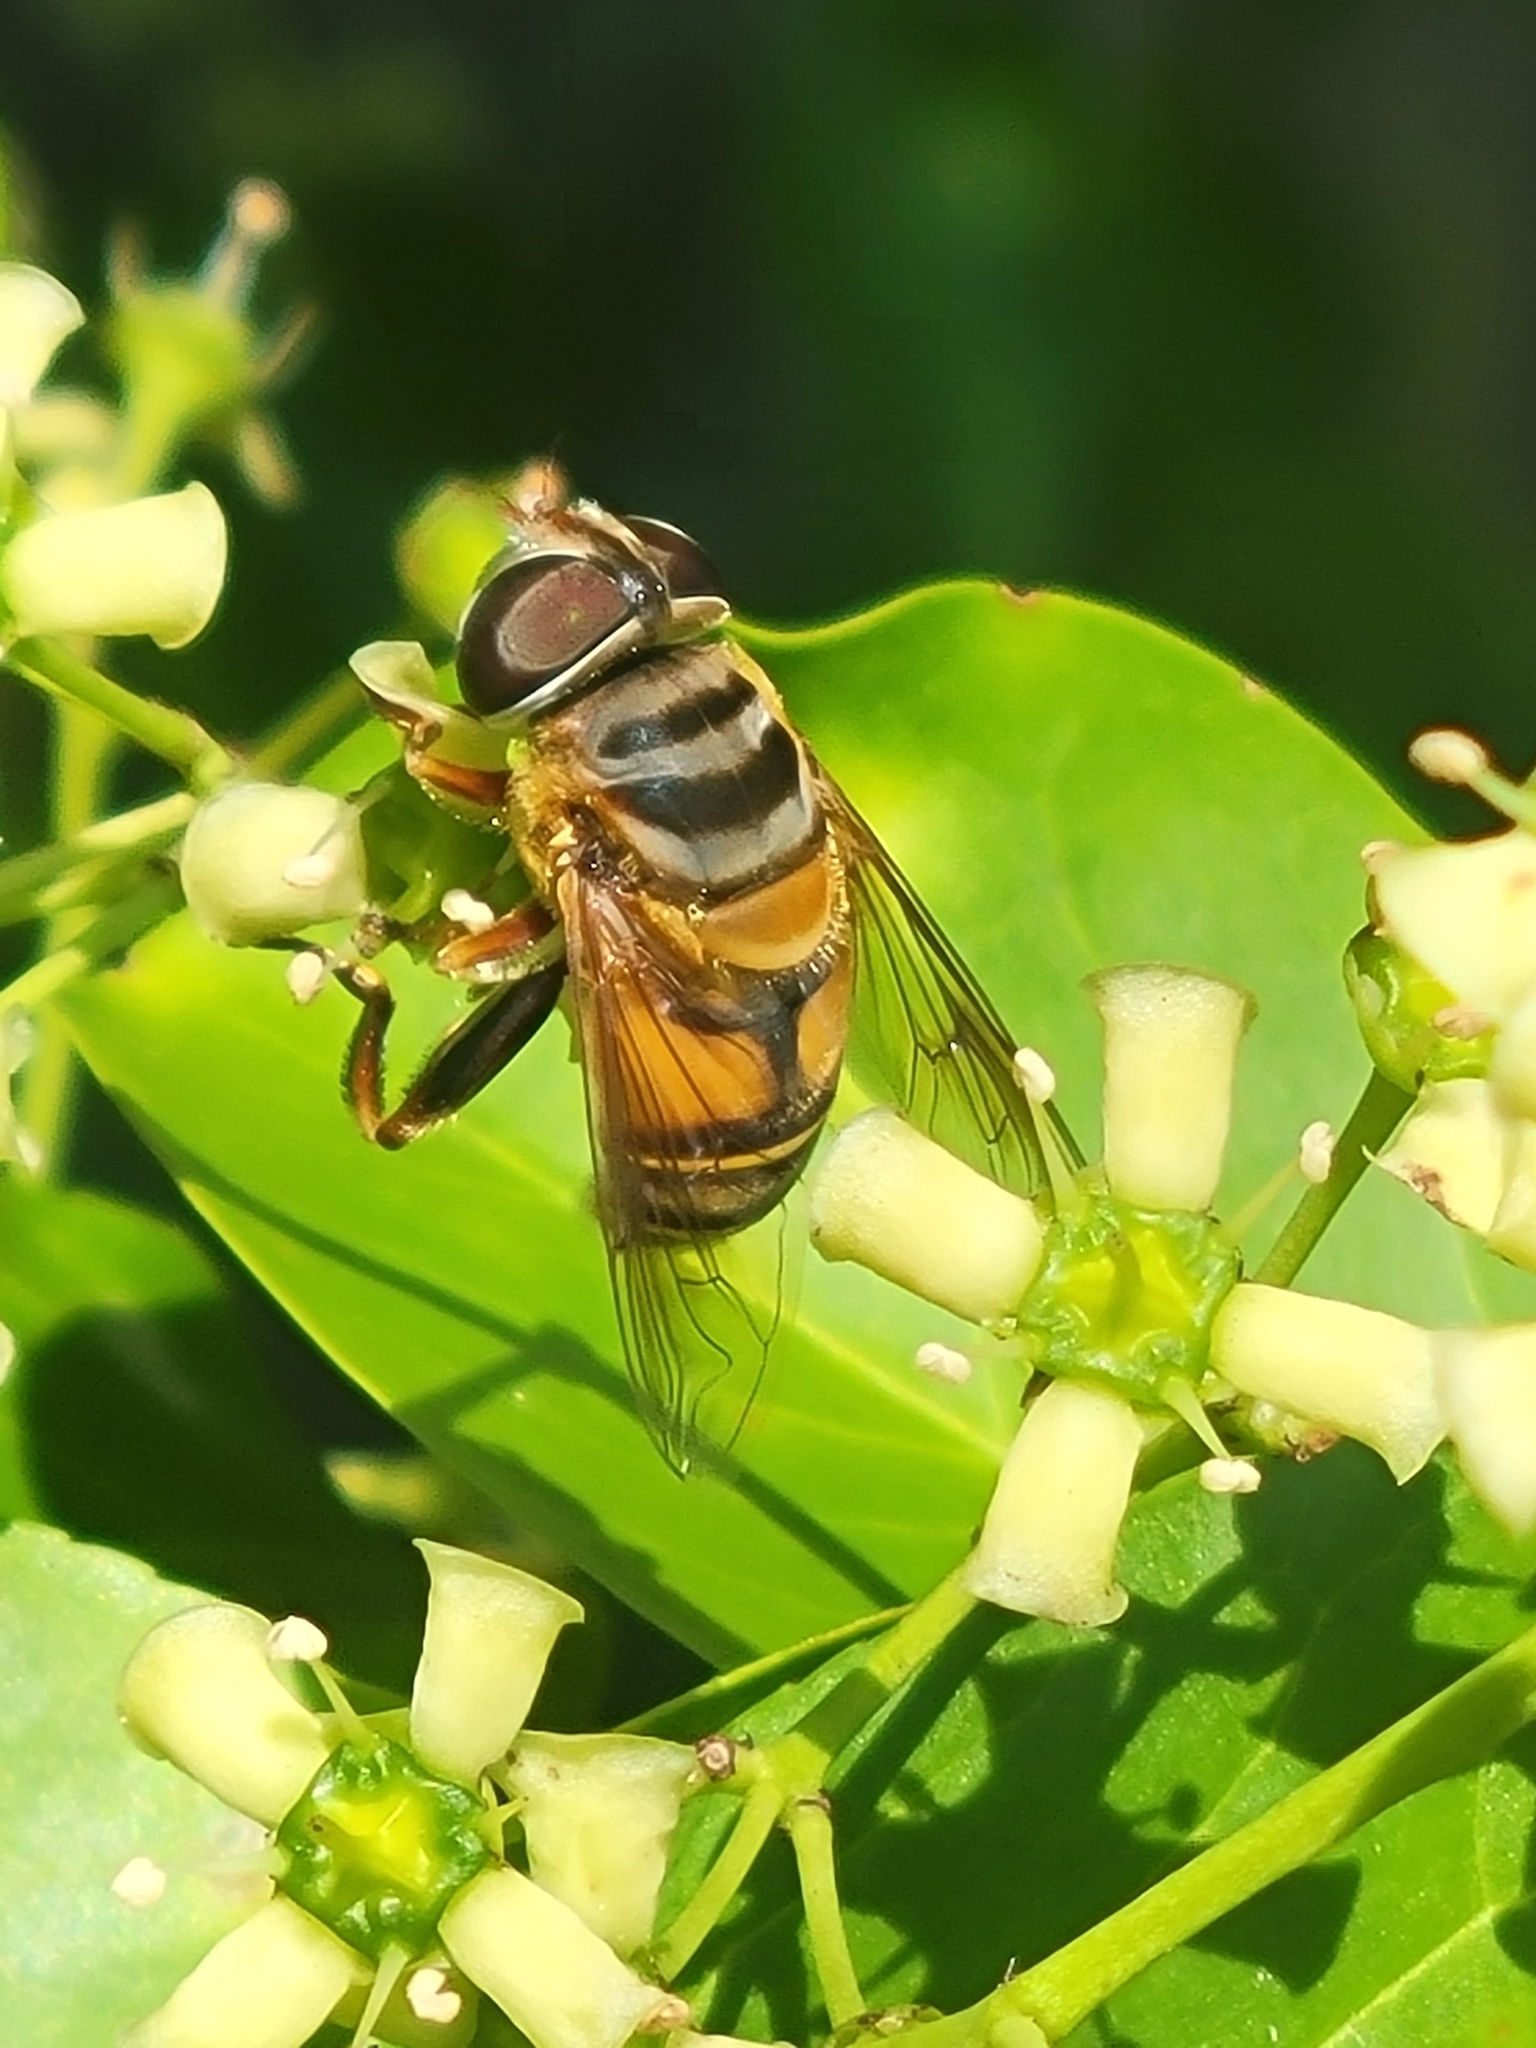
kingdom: Animalia
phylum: Arthropoda
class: Insecta
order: Diptera
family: Syrphidae
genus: Palpada
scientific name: Palpada vinetorum
